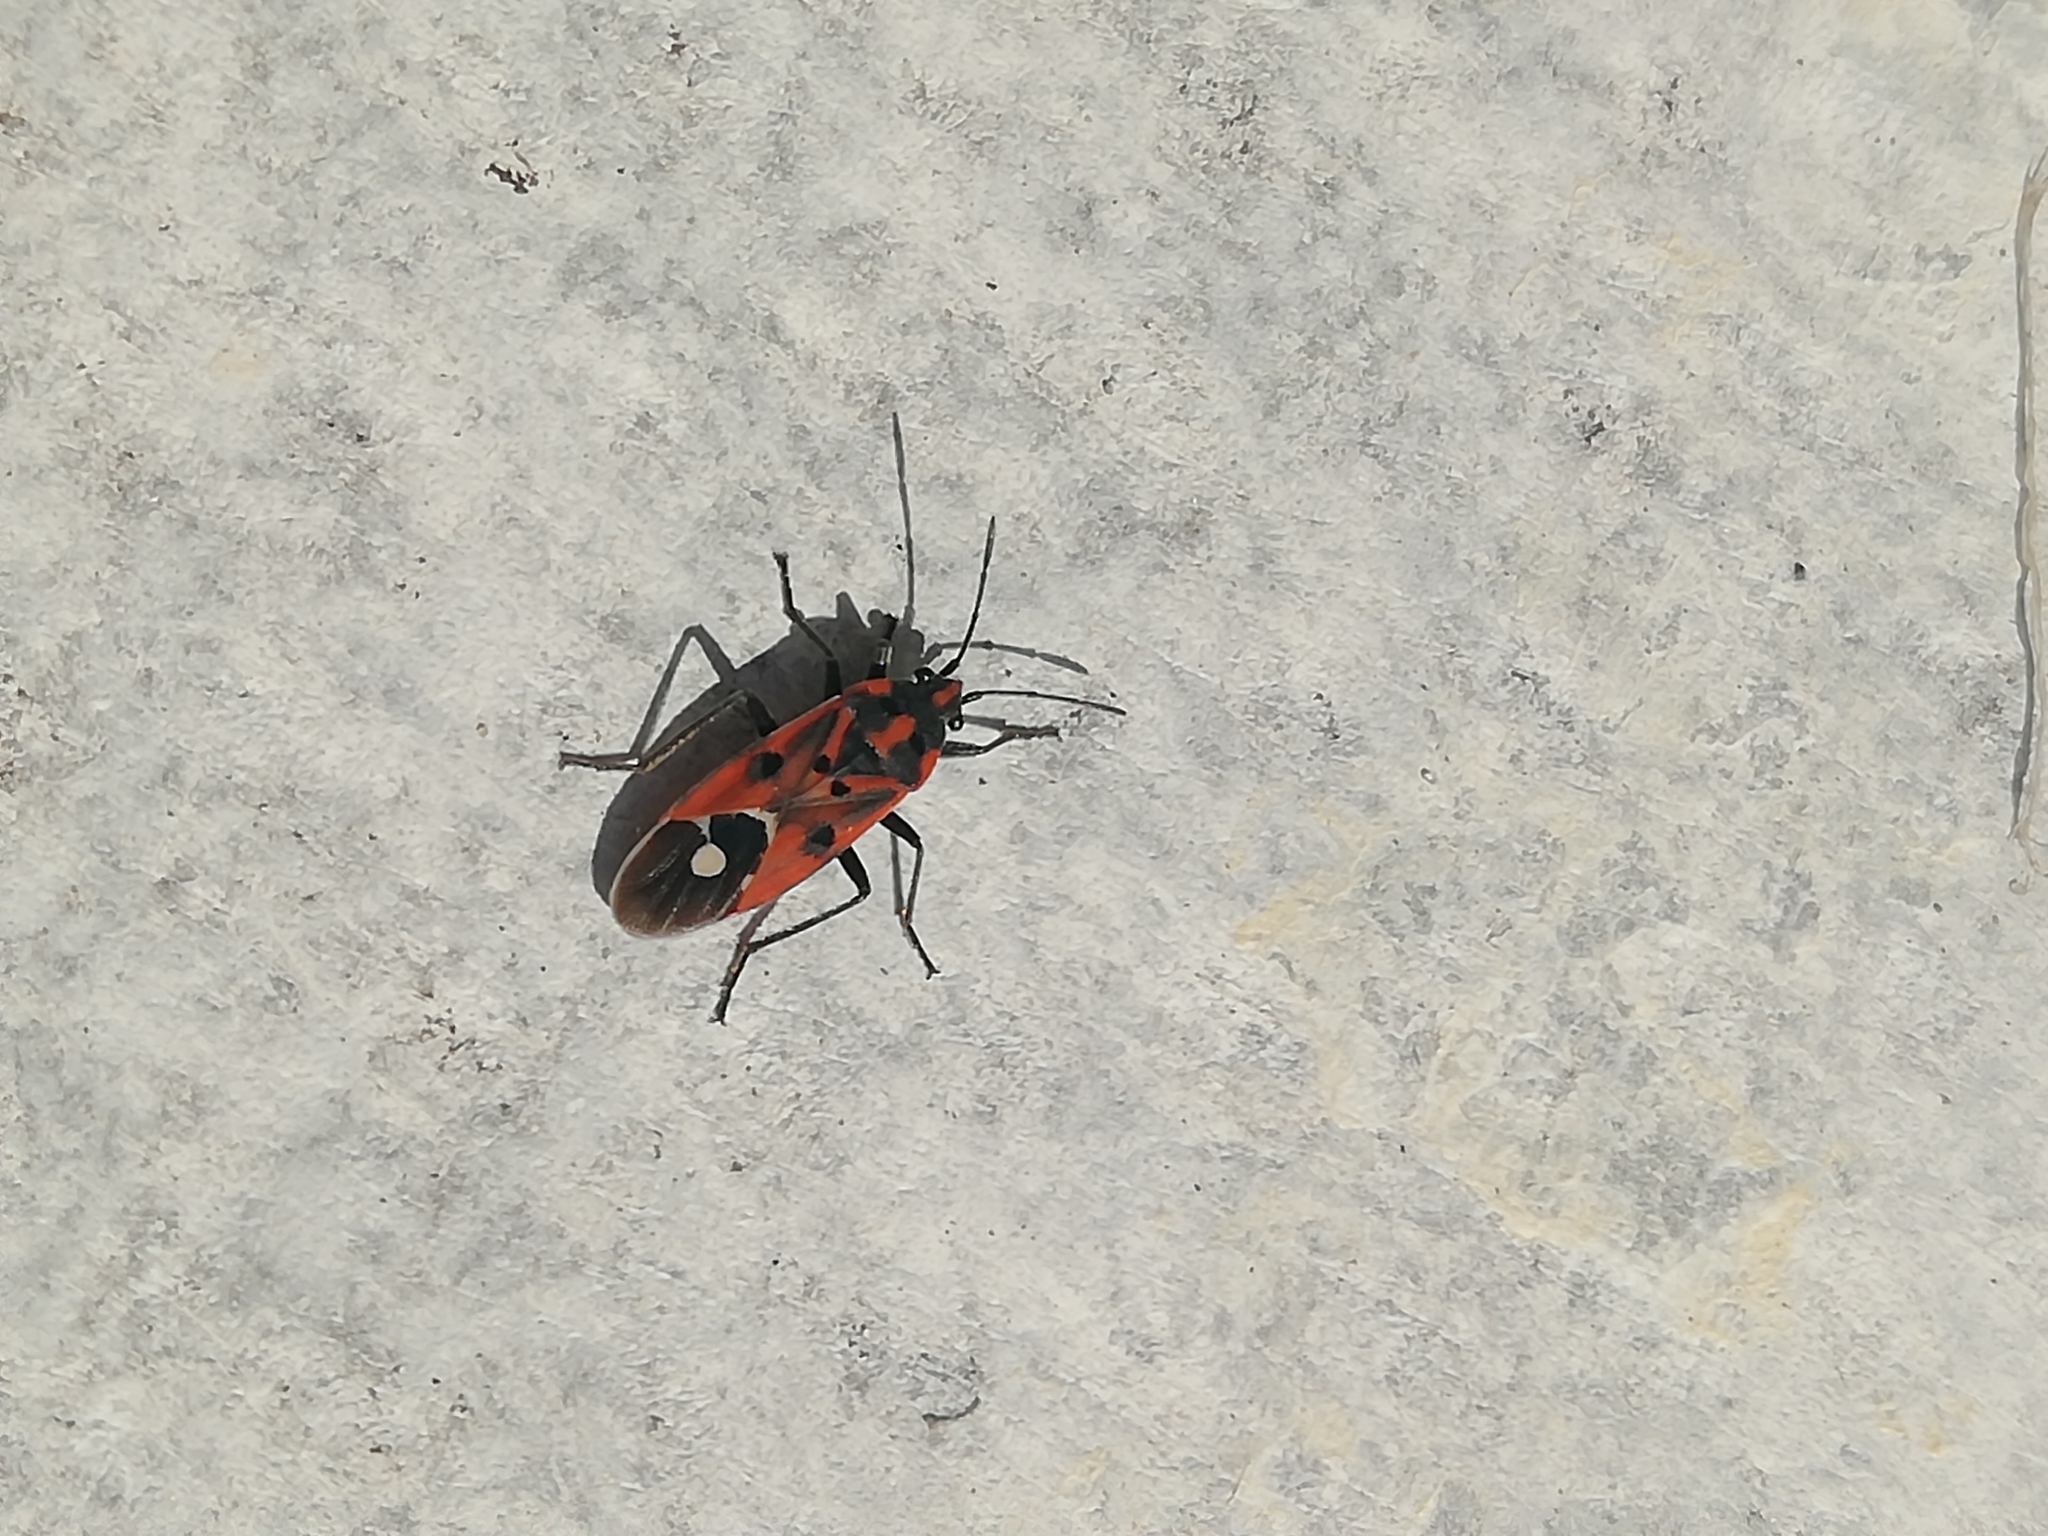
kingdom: Animalia
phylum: Arthropoda
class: Insecta
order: Hemiptera
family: Lygaeidae
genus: Lygaeus
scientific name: Lygaeus hanseni
